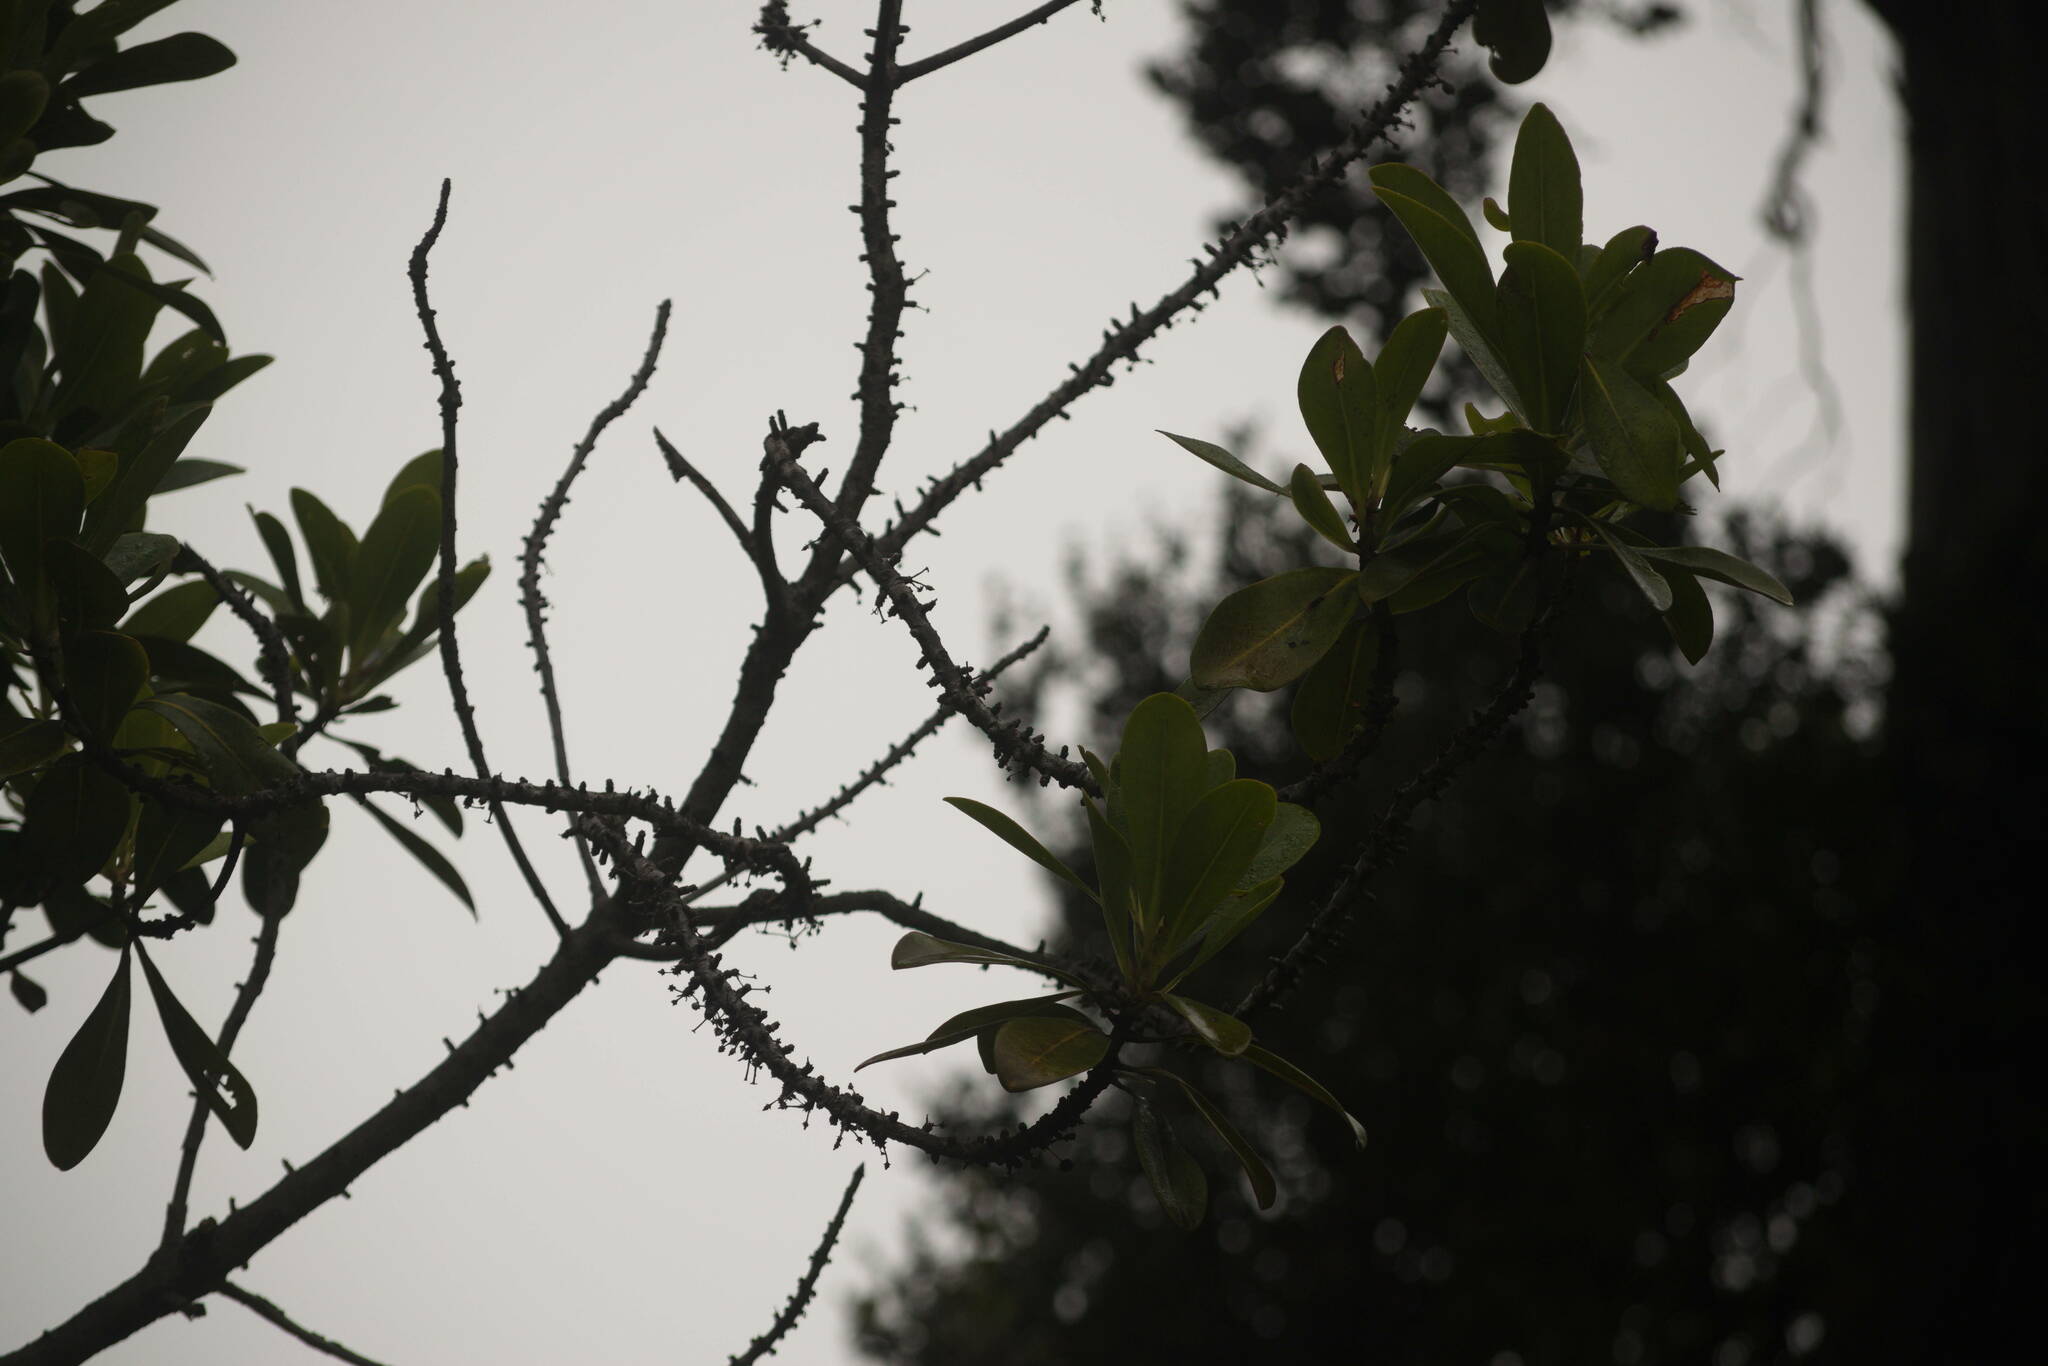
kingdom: Plantae
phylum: Tracheophyta
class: Magnoliopsida
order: Ericales
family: Primulaceae
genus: Myrsine
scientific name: Myrsine lessertiana
